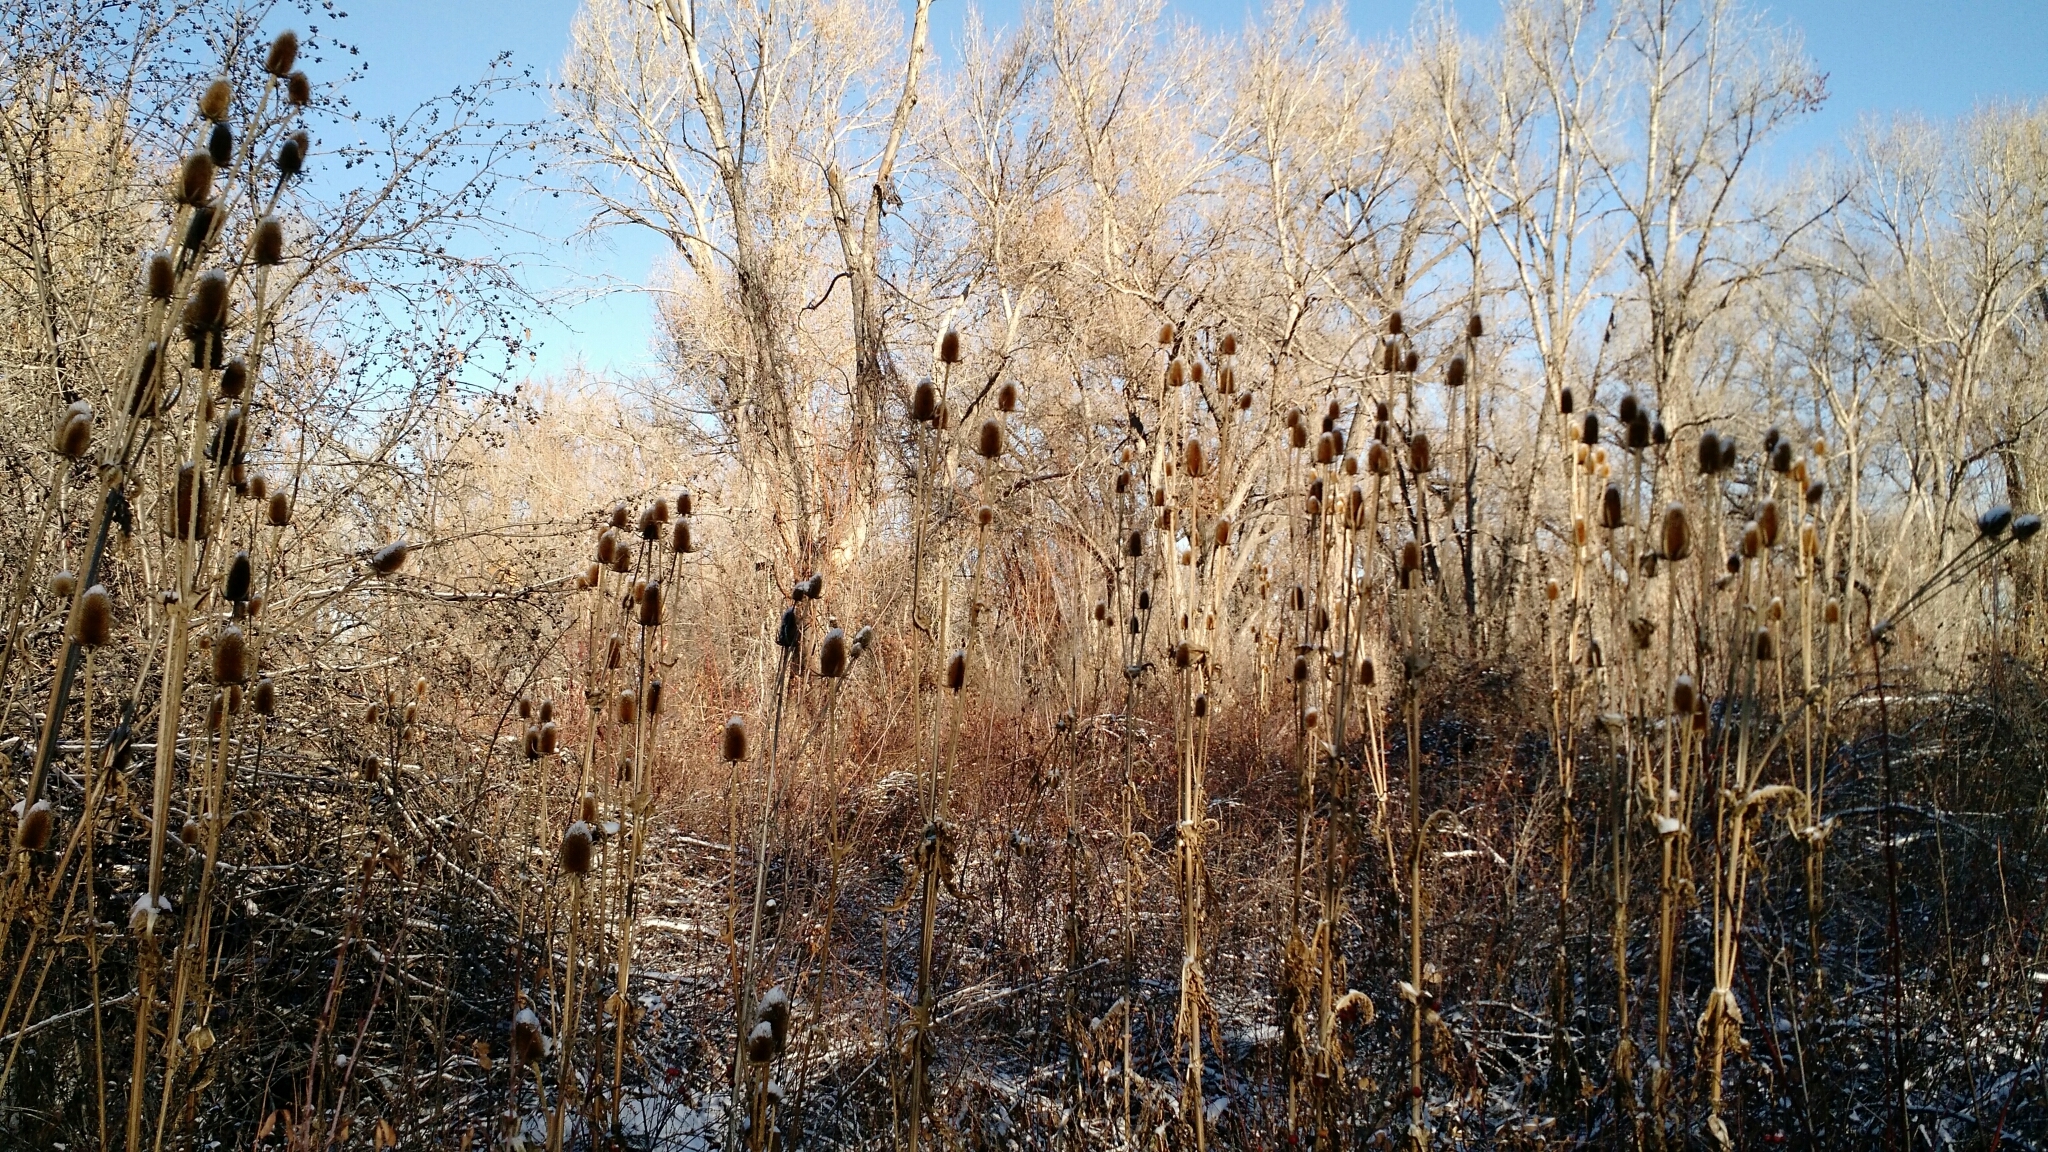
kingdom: Plantae
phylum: Tracheophyta
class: Magnoliopsida
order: Dipsacales
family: Caprifoliaceae
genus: Dipsacus
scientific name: Dipsacus fullonum
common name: Teasel
